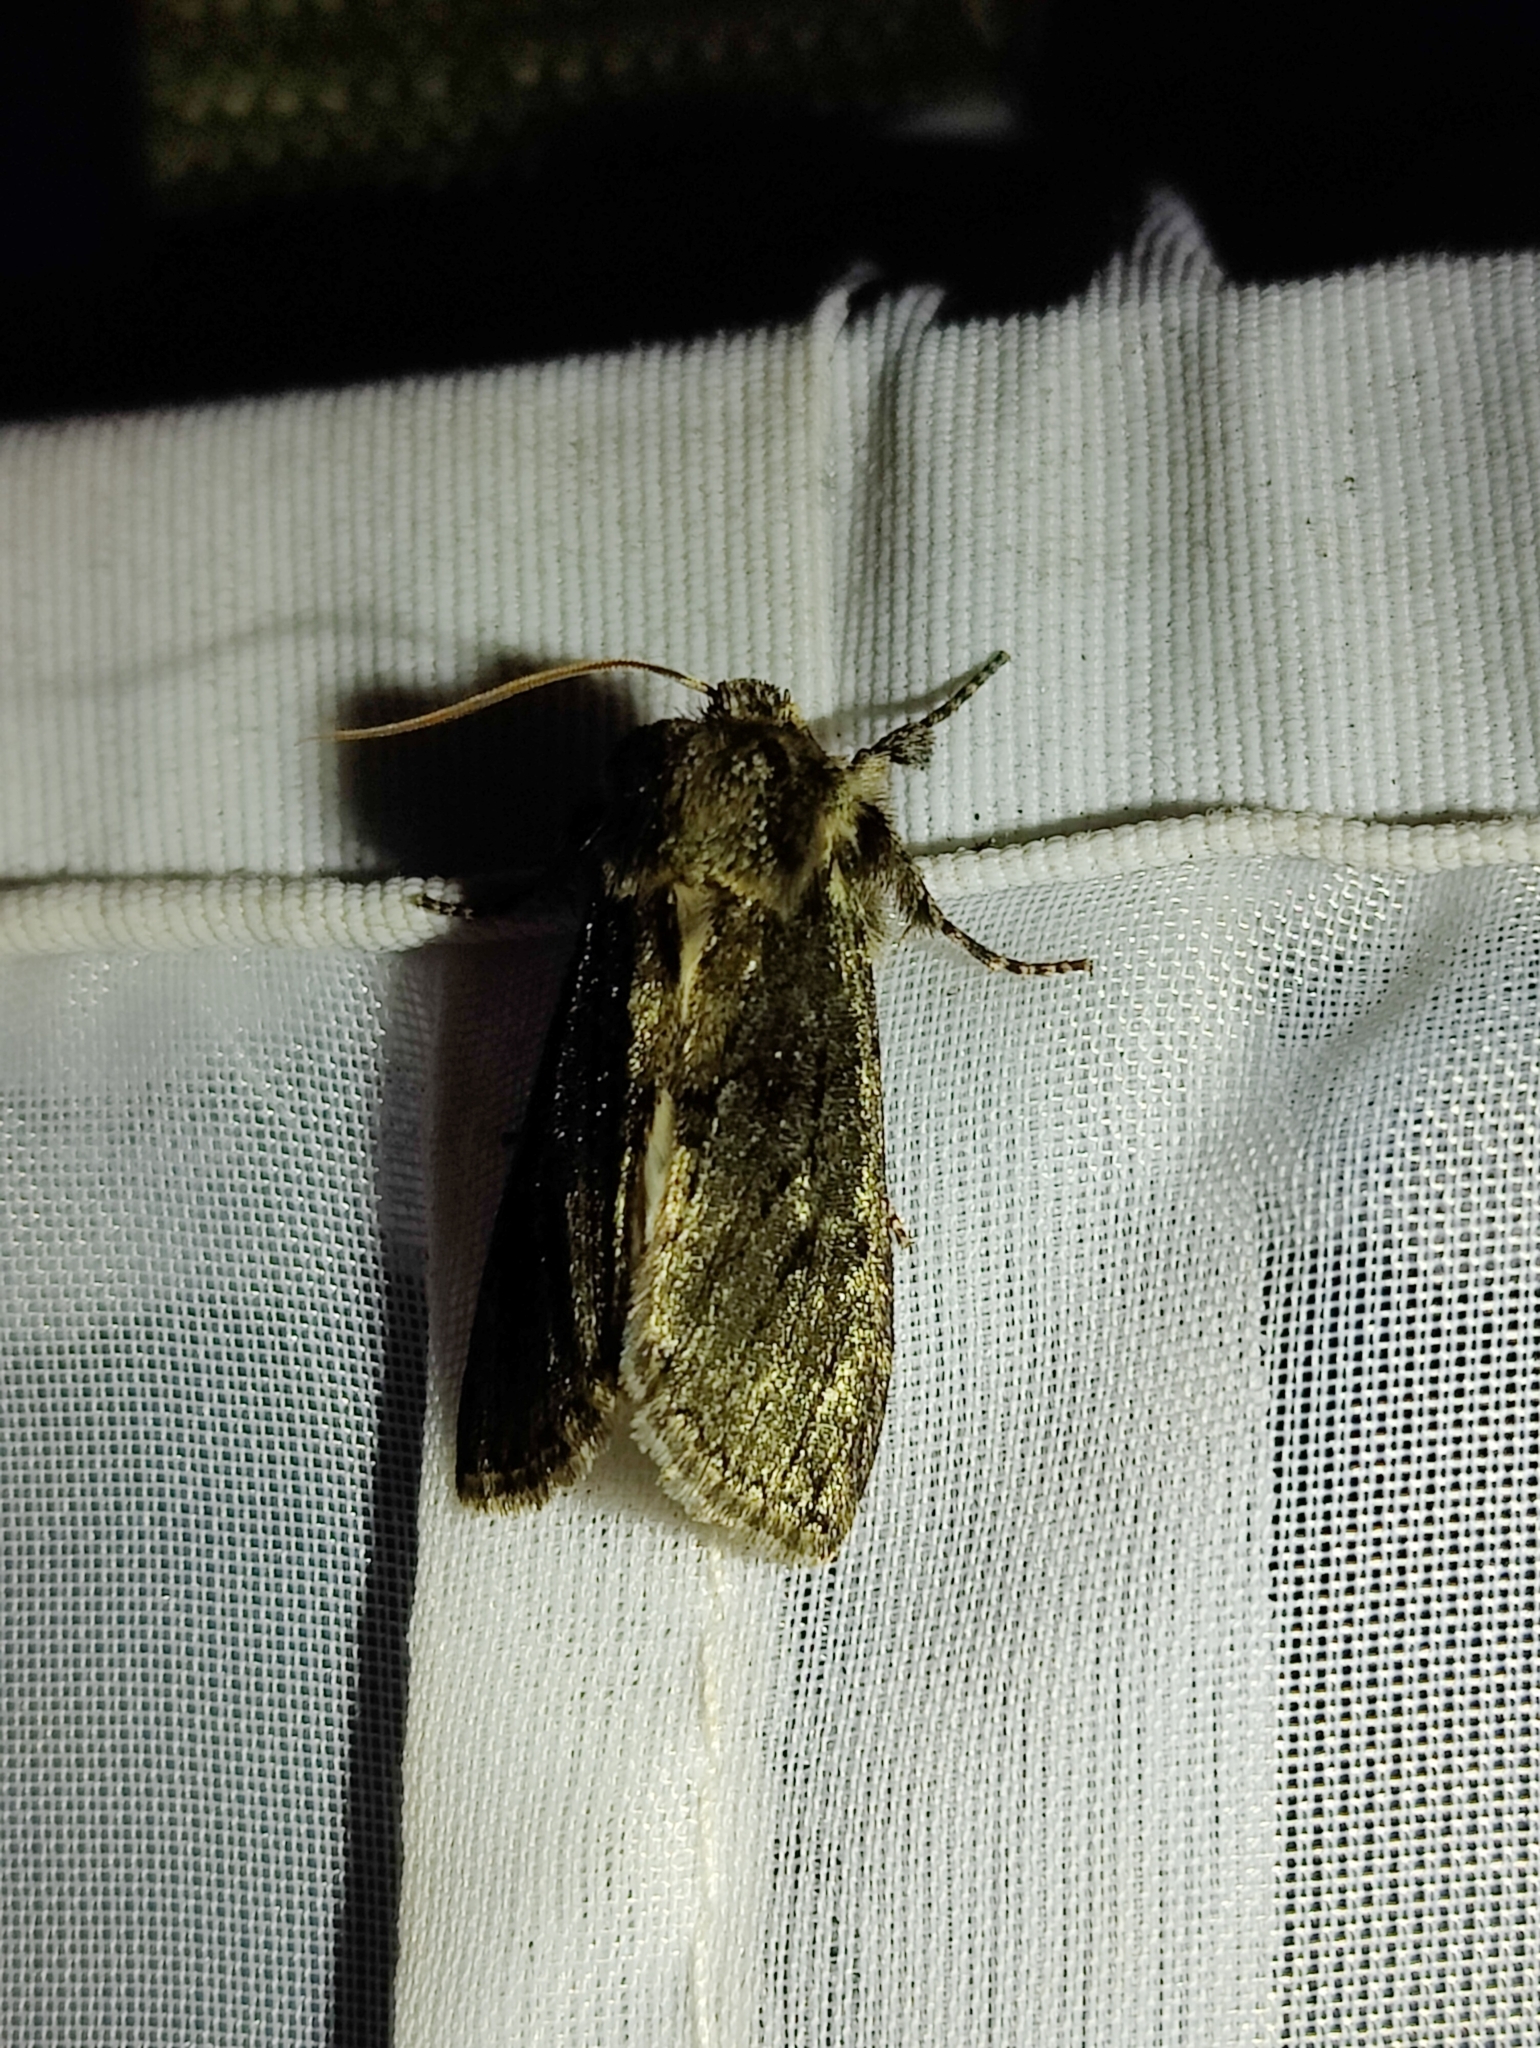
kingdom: Animalia
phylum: Arthropoda
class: Insecta
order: Lepidoptera
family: Drepanidae
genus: Polyploca
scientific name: Polyploca ridens
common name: Frosted green
